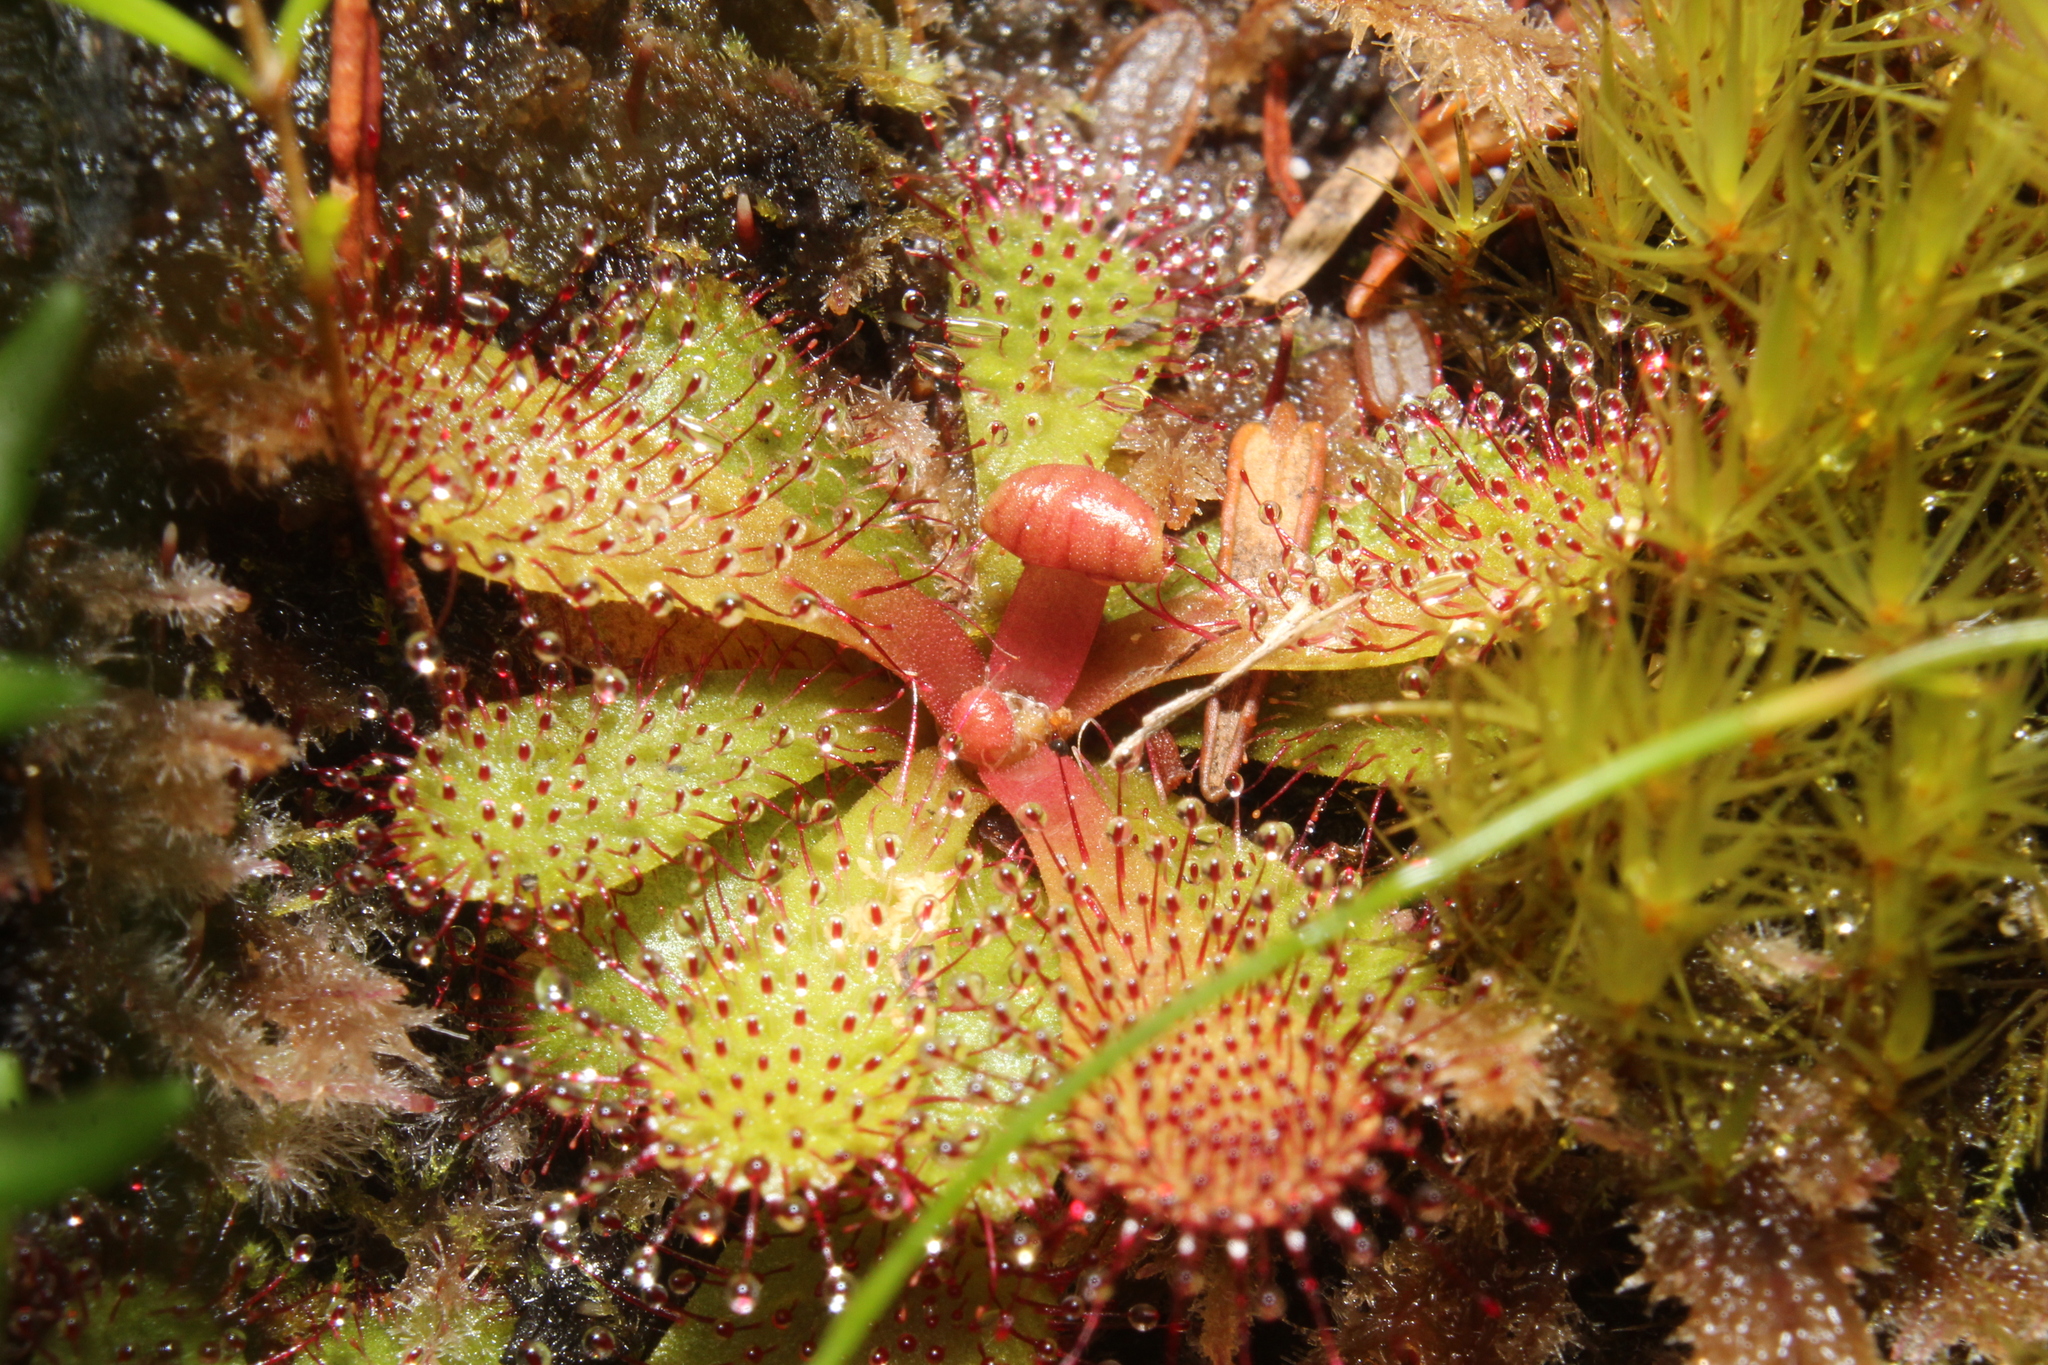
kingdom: Plantae
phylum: Tracheophyta
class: Magnoliopsida
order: Caryophyllales
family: Droseraceae
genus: Drosera
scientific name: Drosera hamiltonii
